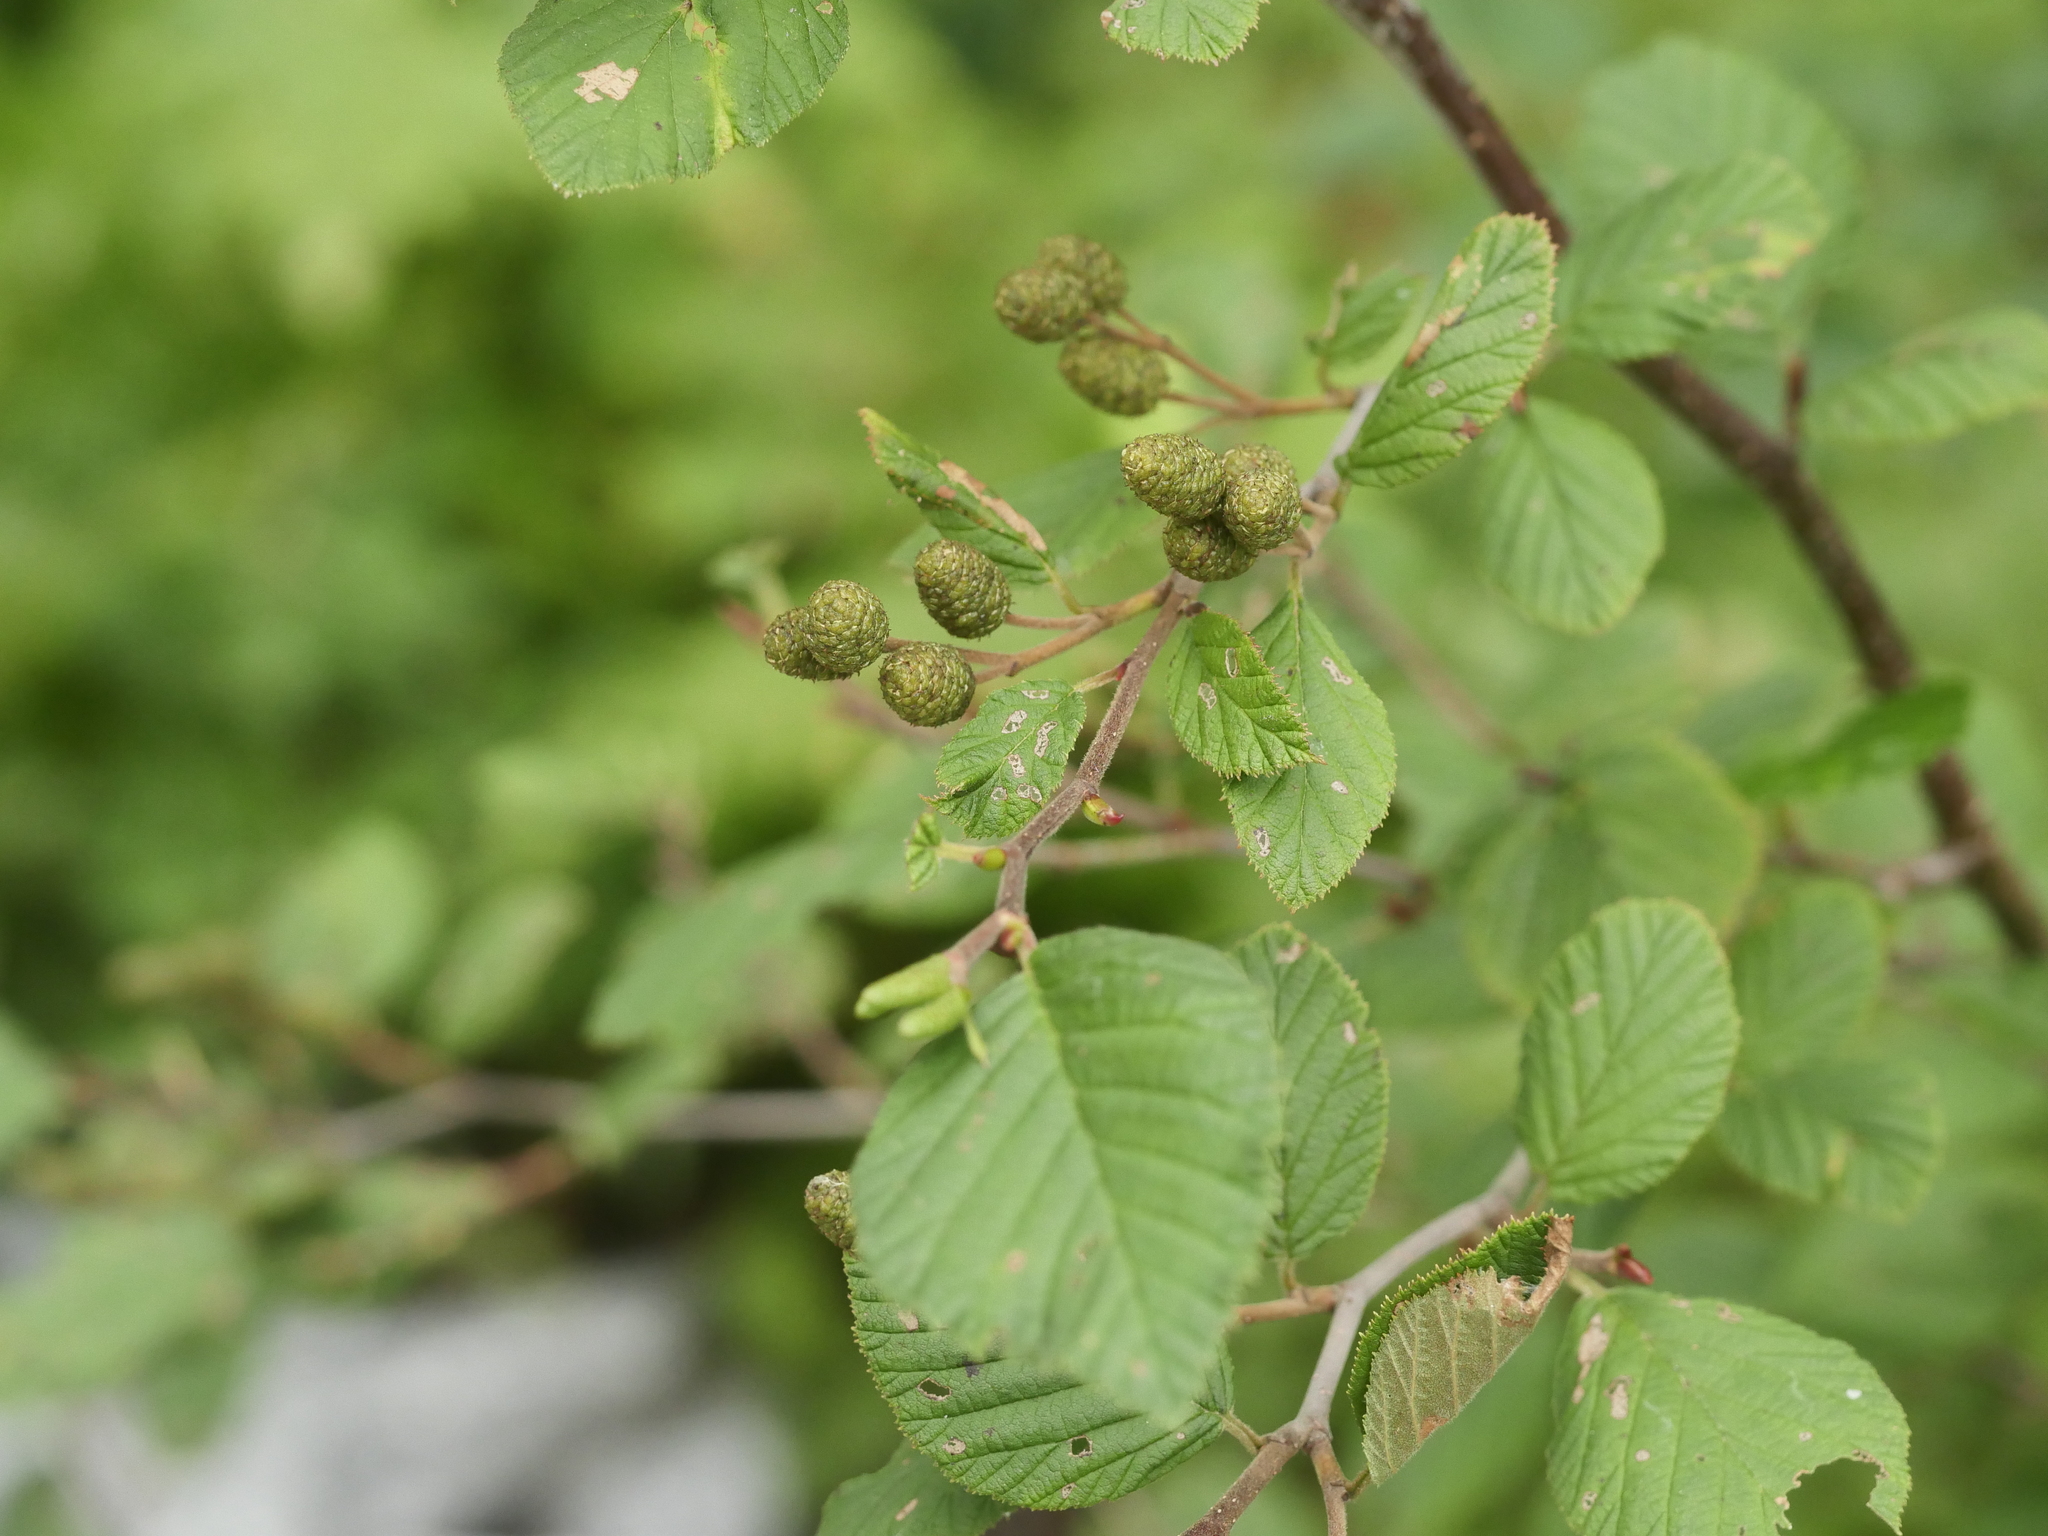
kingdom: Plantae
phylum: Tracheophyta
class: Magnoliopsida
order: Fagales
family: Betulaceae
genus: Alnus
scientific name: Alnus alnobetula
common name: Green alder
